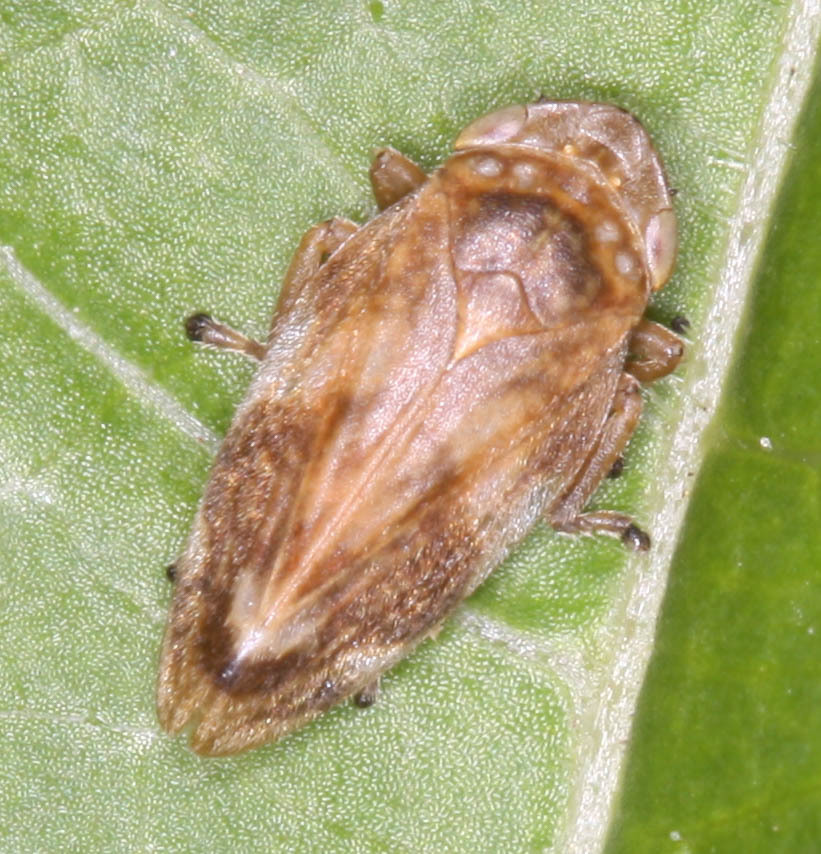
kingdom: Animalia
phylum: Arthropoda
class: Insecta
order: Hemiptera
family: Aphrophoridae
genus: Philaenus
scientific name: Philaenus spumarius
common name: Meadow spittlebug
